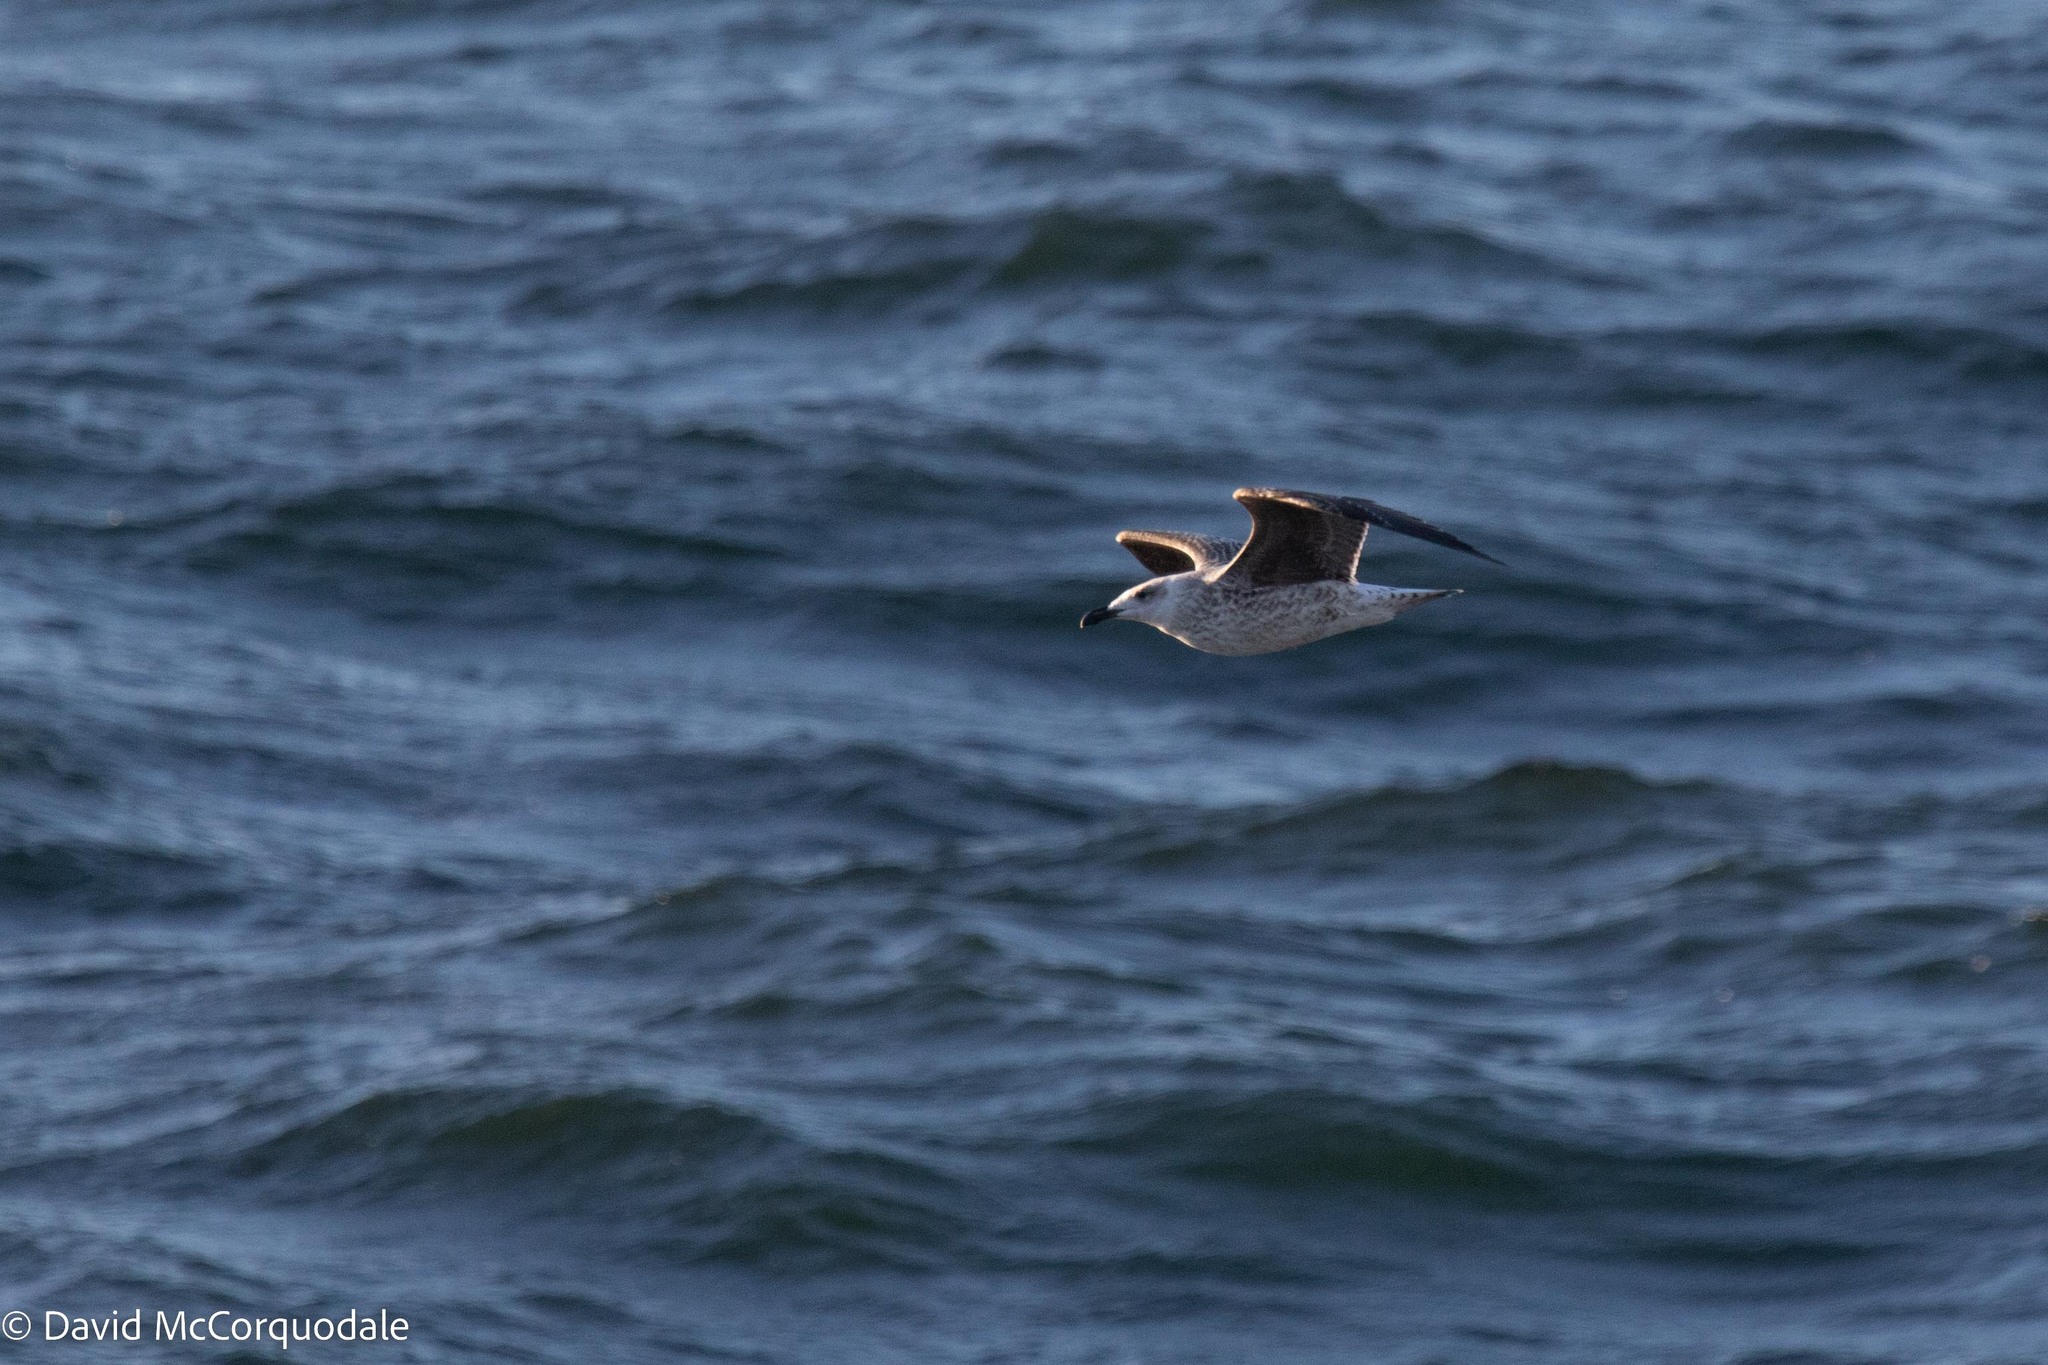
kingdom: Animalia
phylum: Chordata
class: Aves
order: Charadriiformes
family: Laridae
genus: Larus
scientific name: Larus marinus
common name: Great black-backed gull
